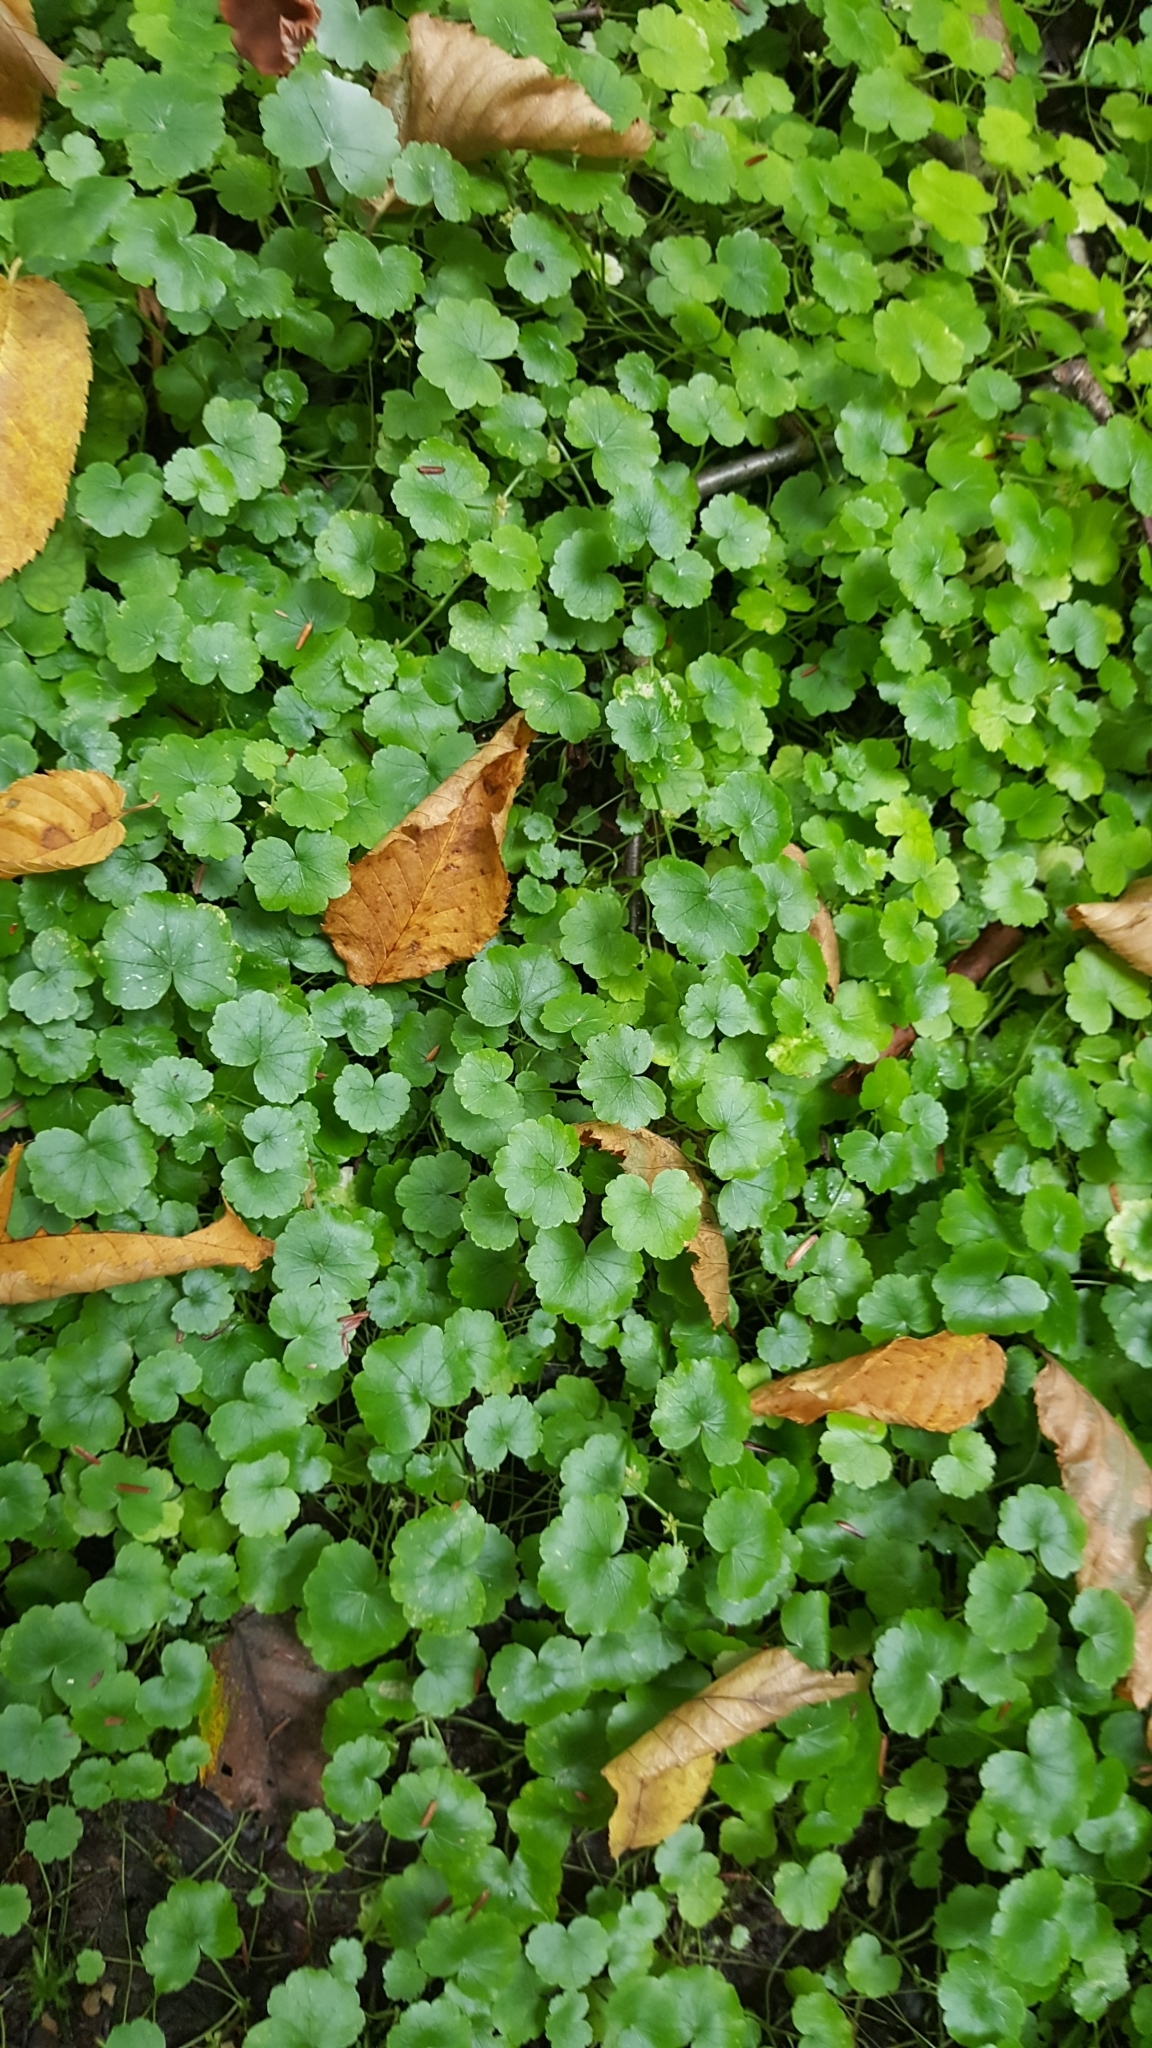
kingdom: Plantae
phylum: Tracheophyta
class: Magnoliopsida
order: Apiales
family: Araliaceae
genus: Hydrocotyle
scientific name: Hydrocotyle americana
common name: American water-pennywort
